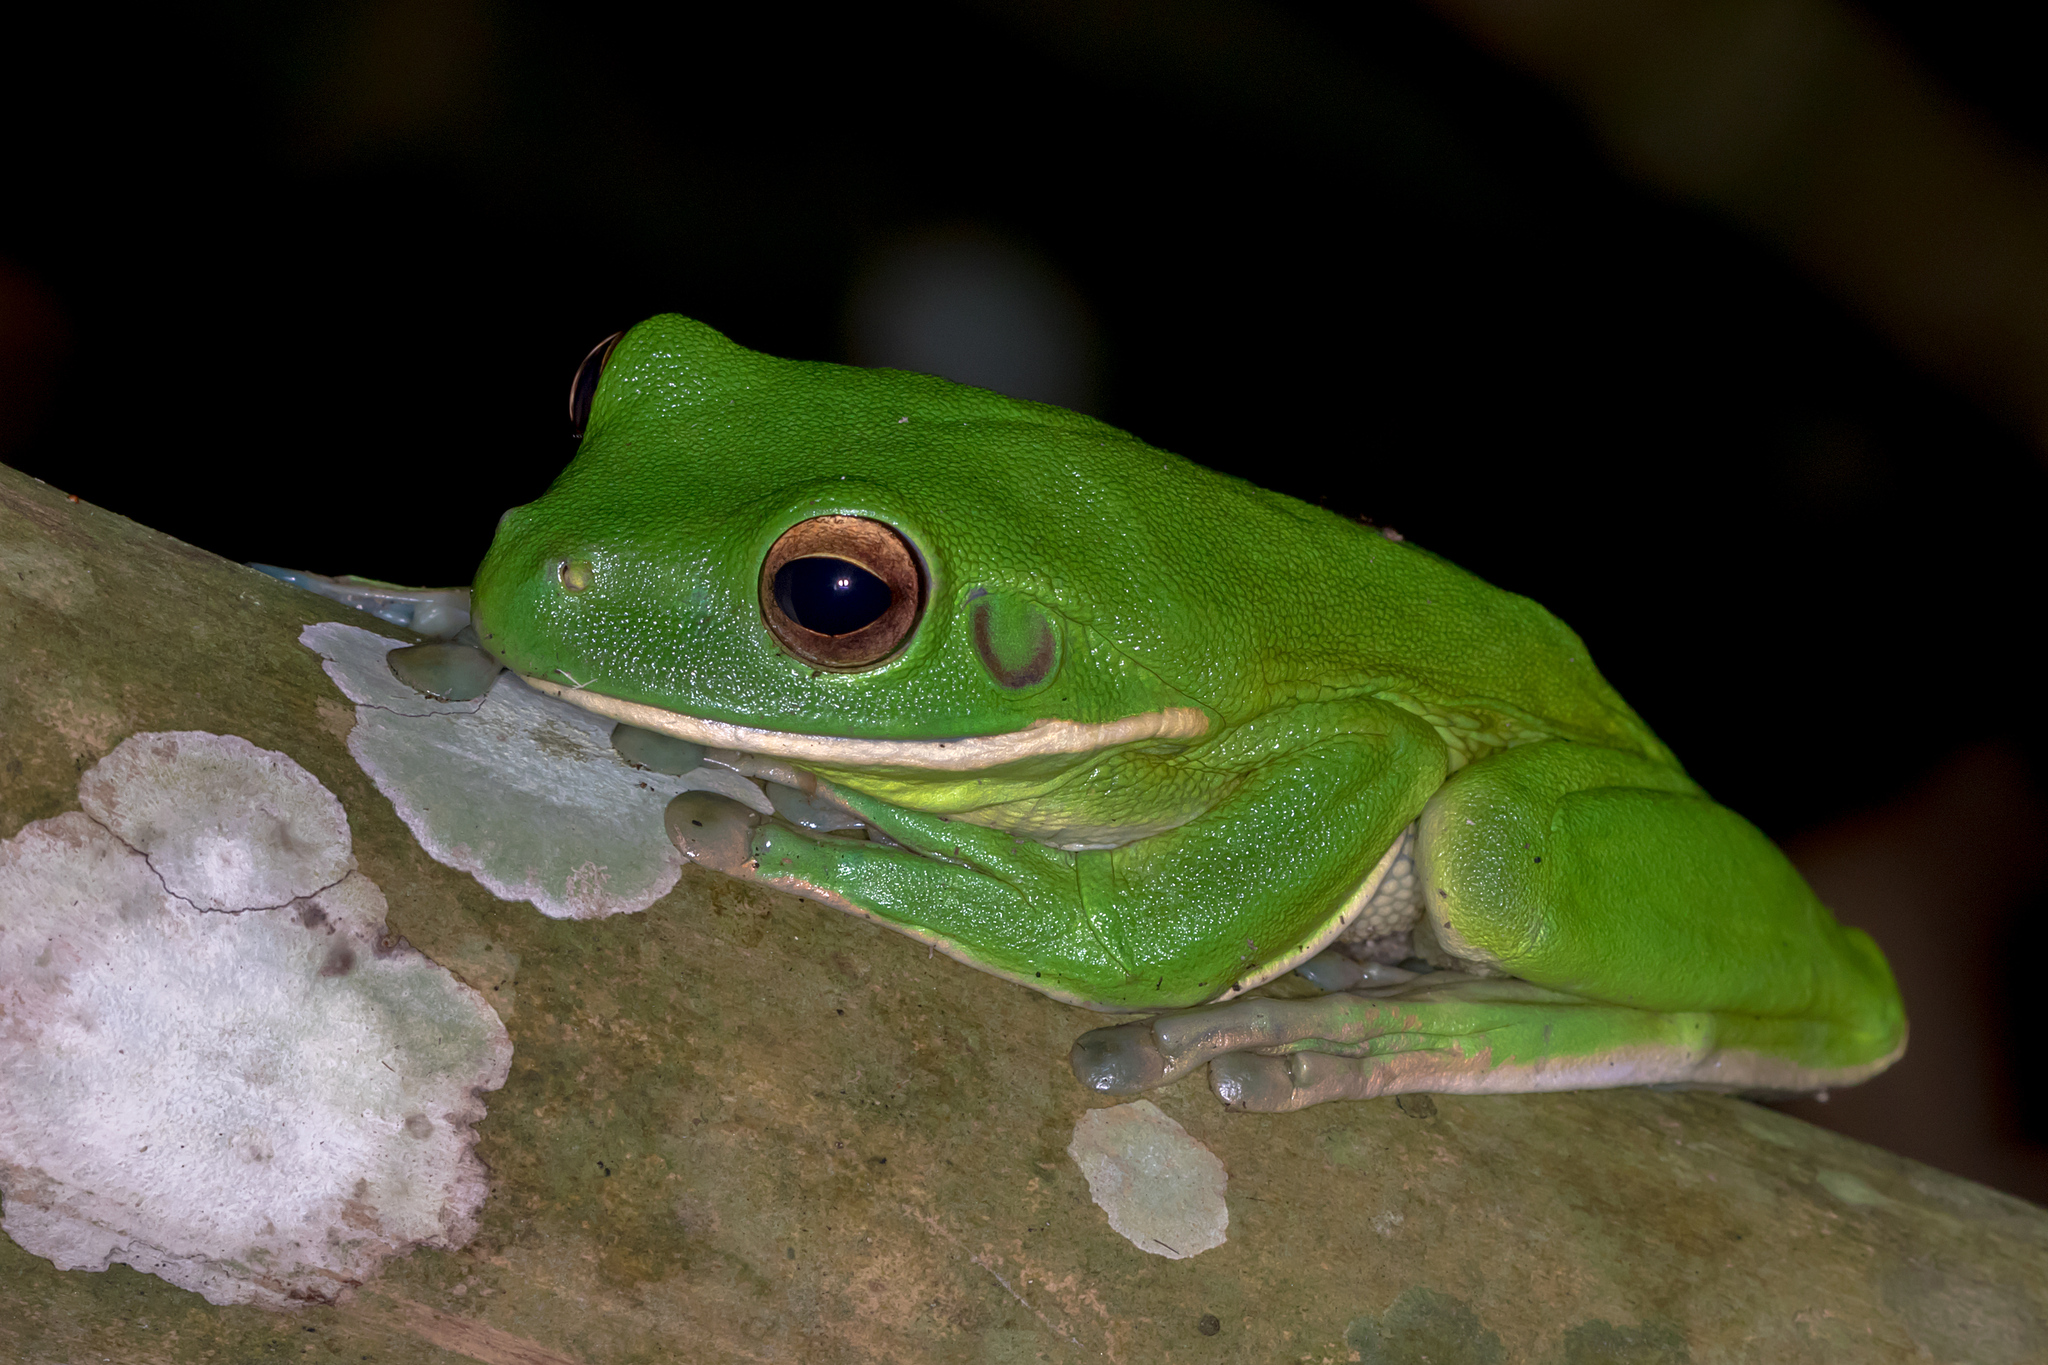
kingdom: Animalia
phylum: Chordata
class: Amphibia
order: Anura
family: Pelodryadidae
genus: Nyctimystes
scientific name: Nyctimystes infrafrenatus
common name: Australian giant treefrog
